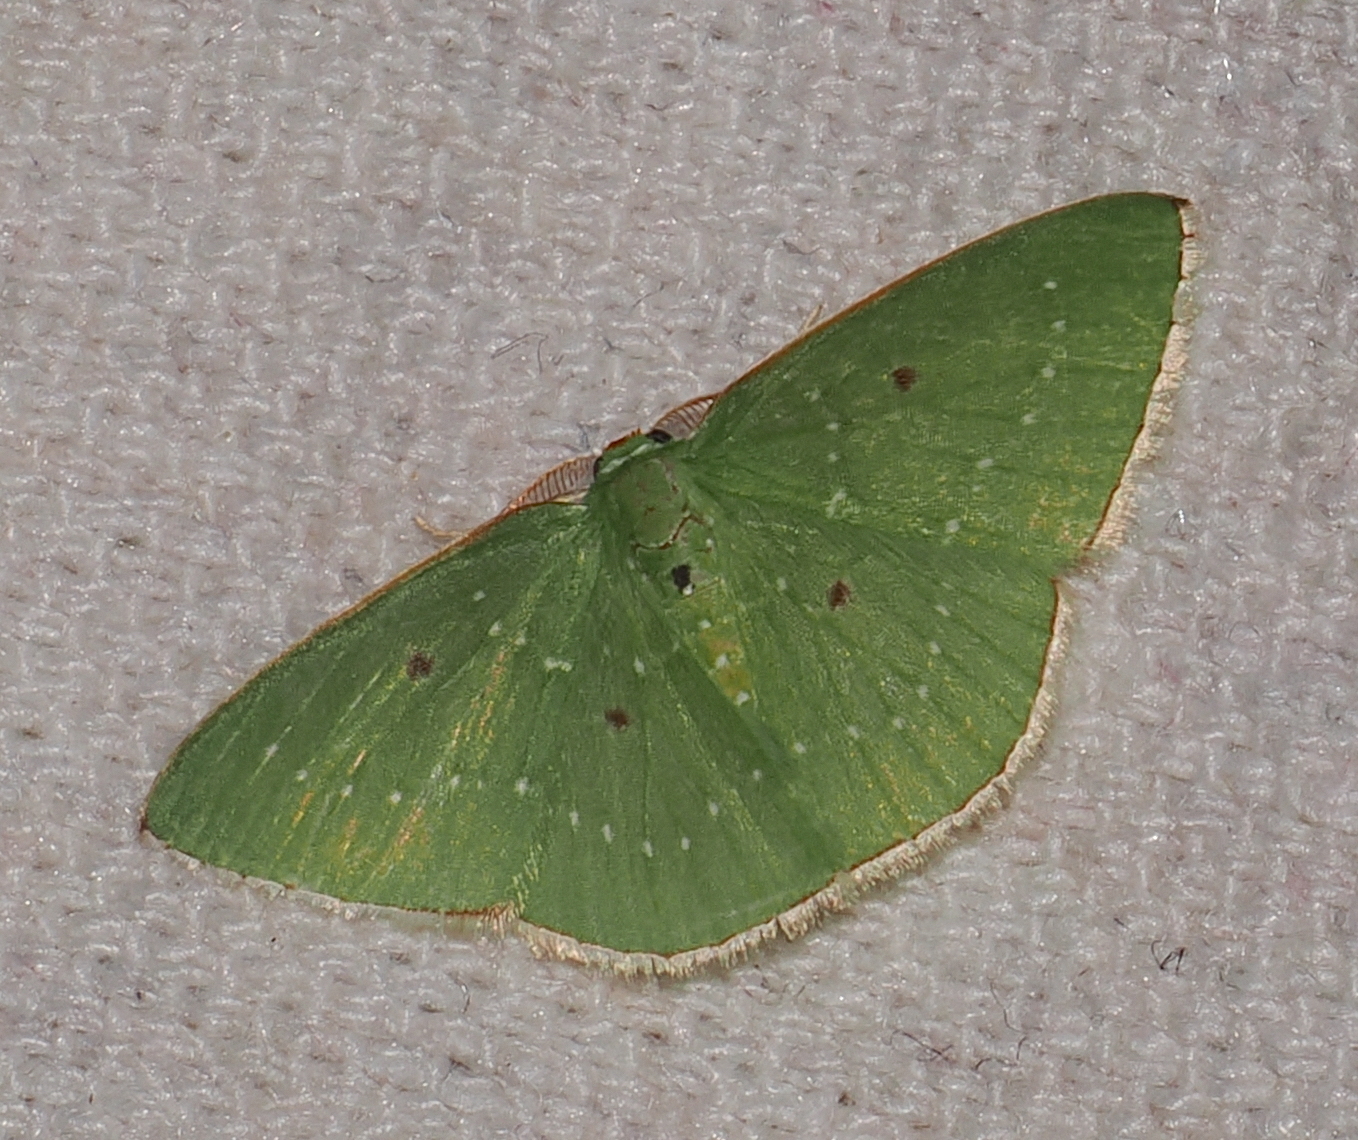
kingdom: Animalia
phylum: Arthropoda
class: Insecta
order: Lepidoptera
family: Geometridae
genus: Lissochlora
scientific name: Lissochlora diarita
